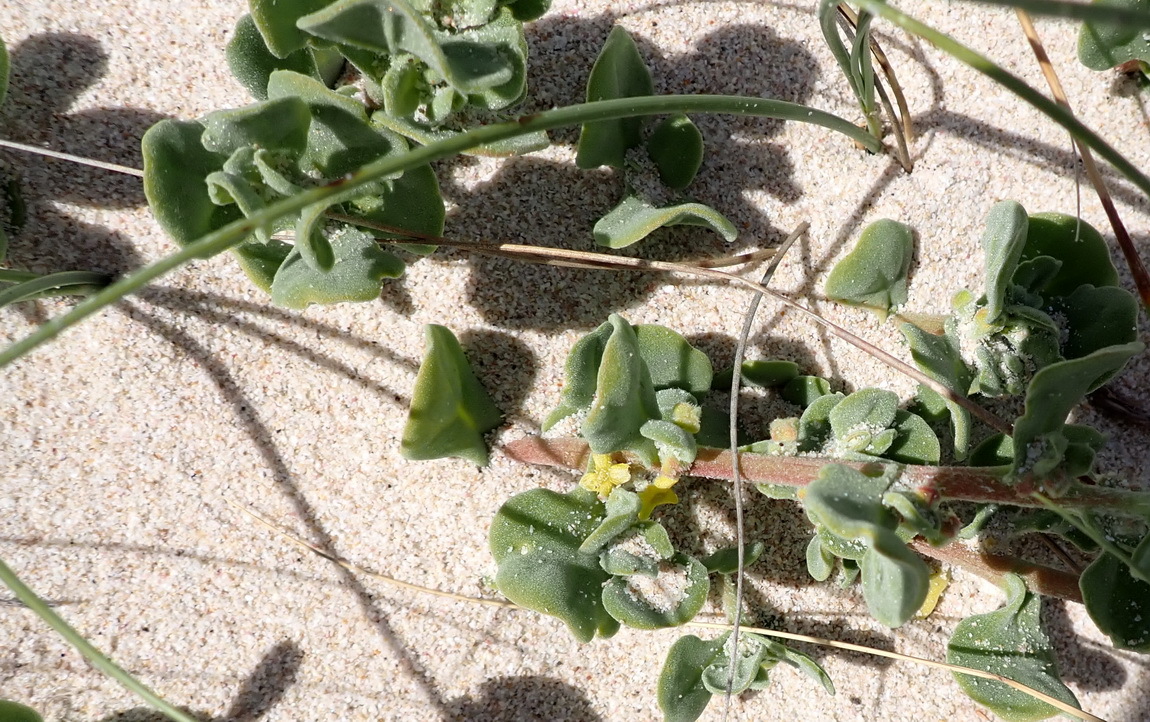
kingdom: Plantae
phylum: Tracheophyta
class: Magnoliopsida
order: Caryophyllales
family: Aizoaceae
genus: Tetragonia
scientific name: Tetragonia decumbens
